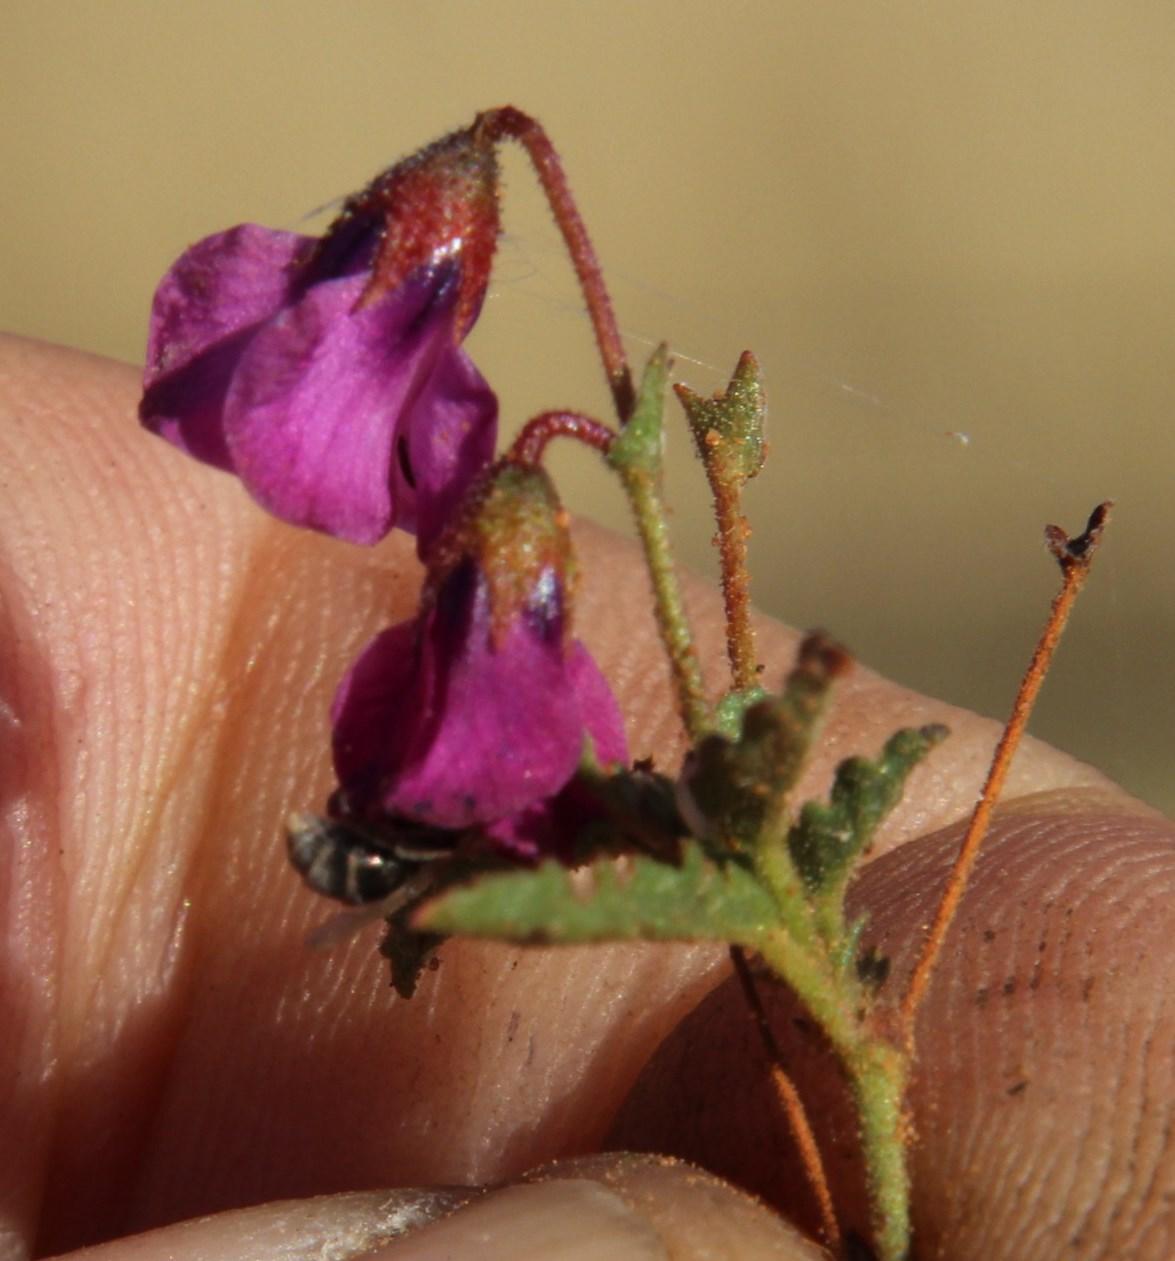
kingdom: Plantae
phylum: Tracheophyta
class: Magnoliopsida
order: Malvales
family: Malvaceae
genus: Hermannia
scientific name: Hermannia coccocarpa
